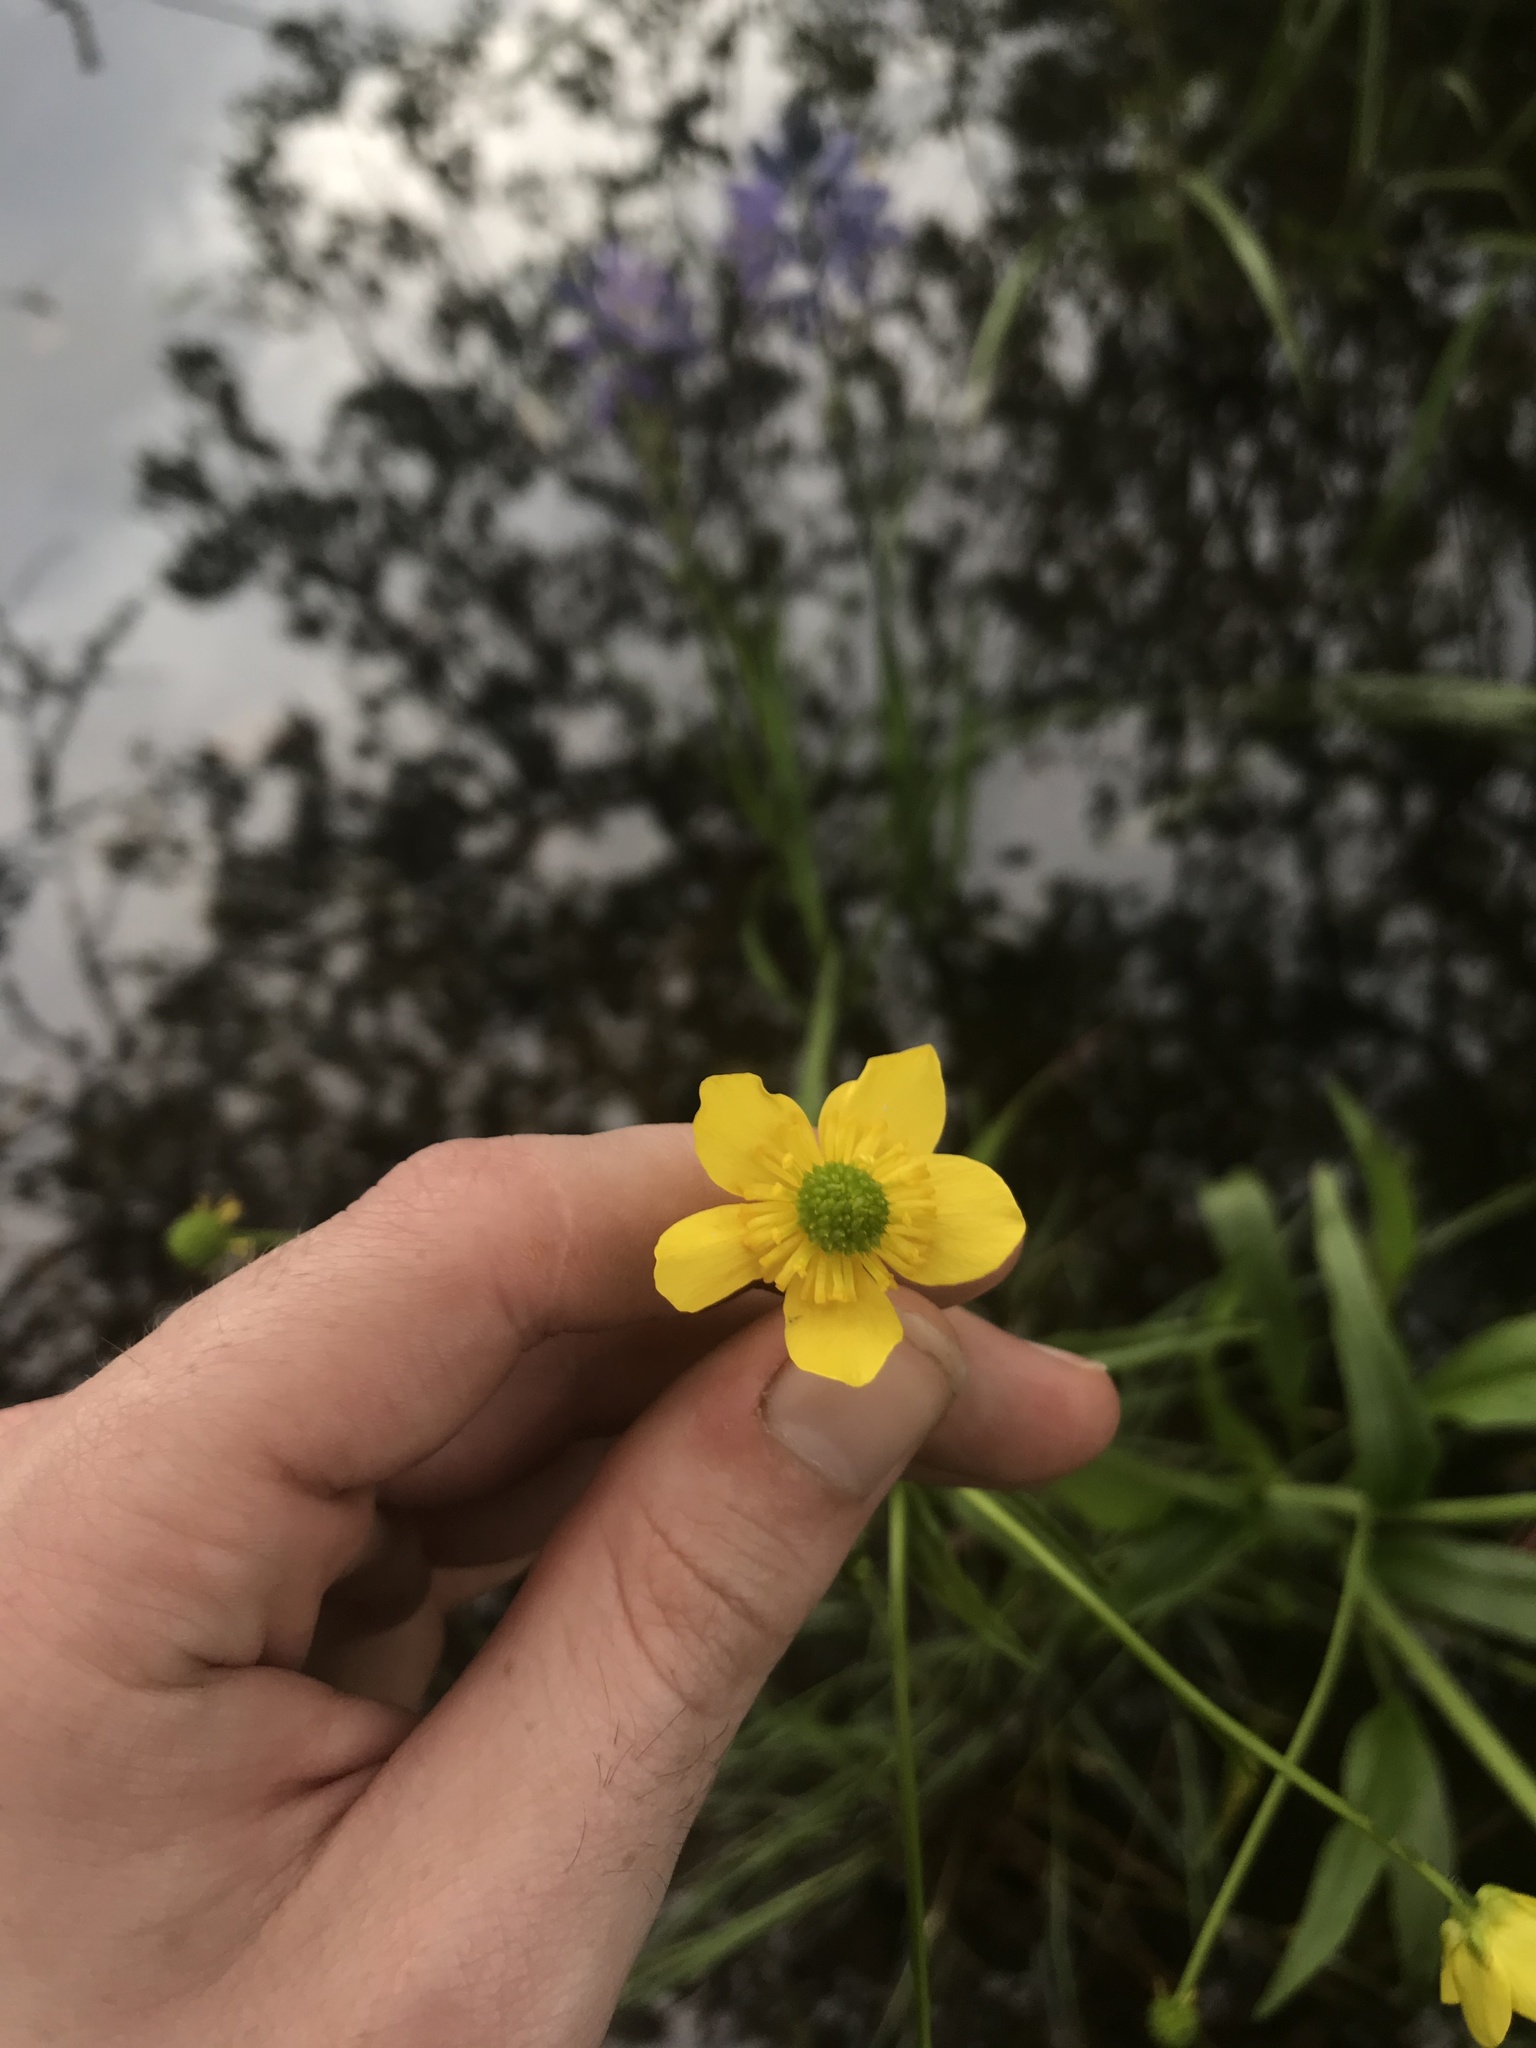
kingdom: Plantae
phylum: Tracheophyta
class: Magnoliopsida
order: Ranunculales
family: Ranunculaceae
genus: Ranunculus
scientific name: Ranunculus alismifolius
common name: Plantain-leaved buttercup
